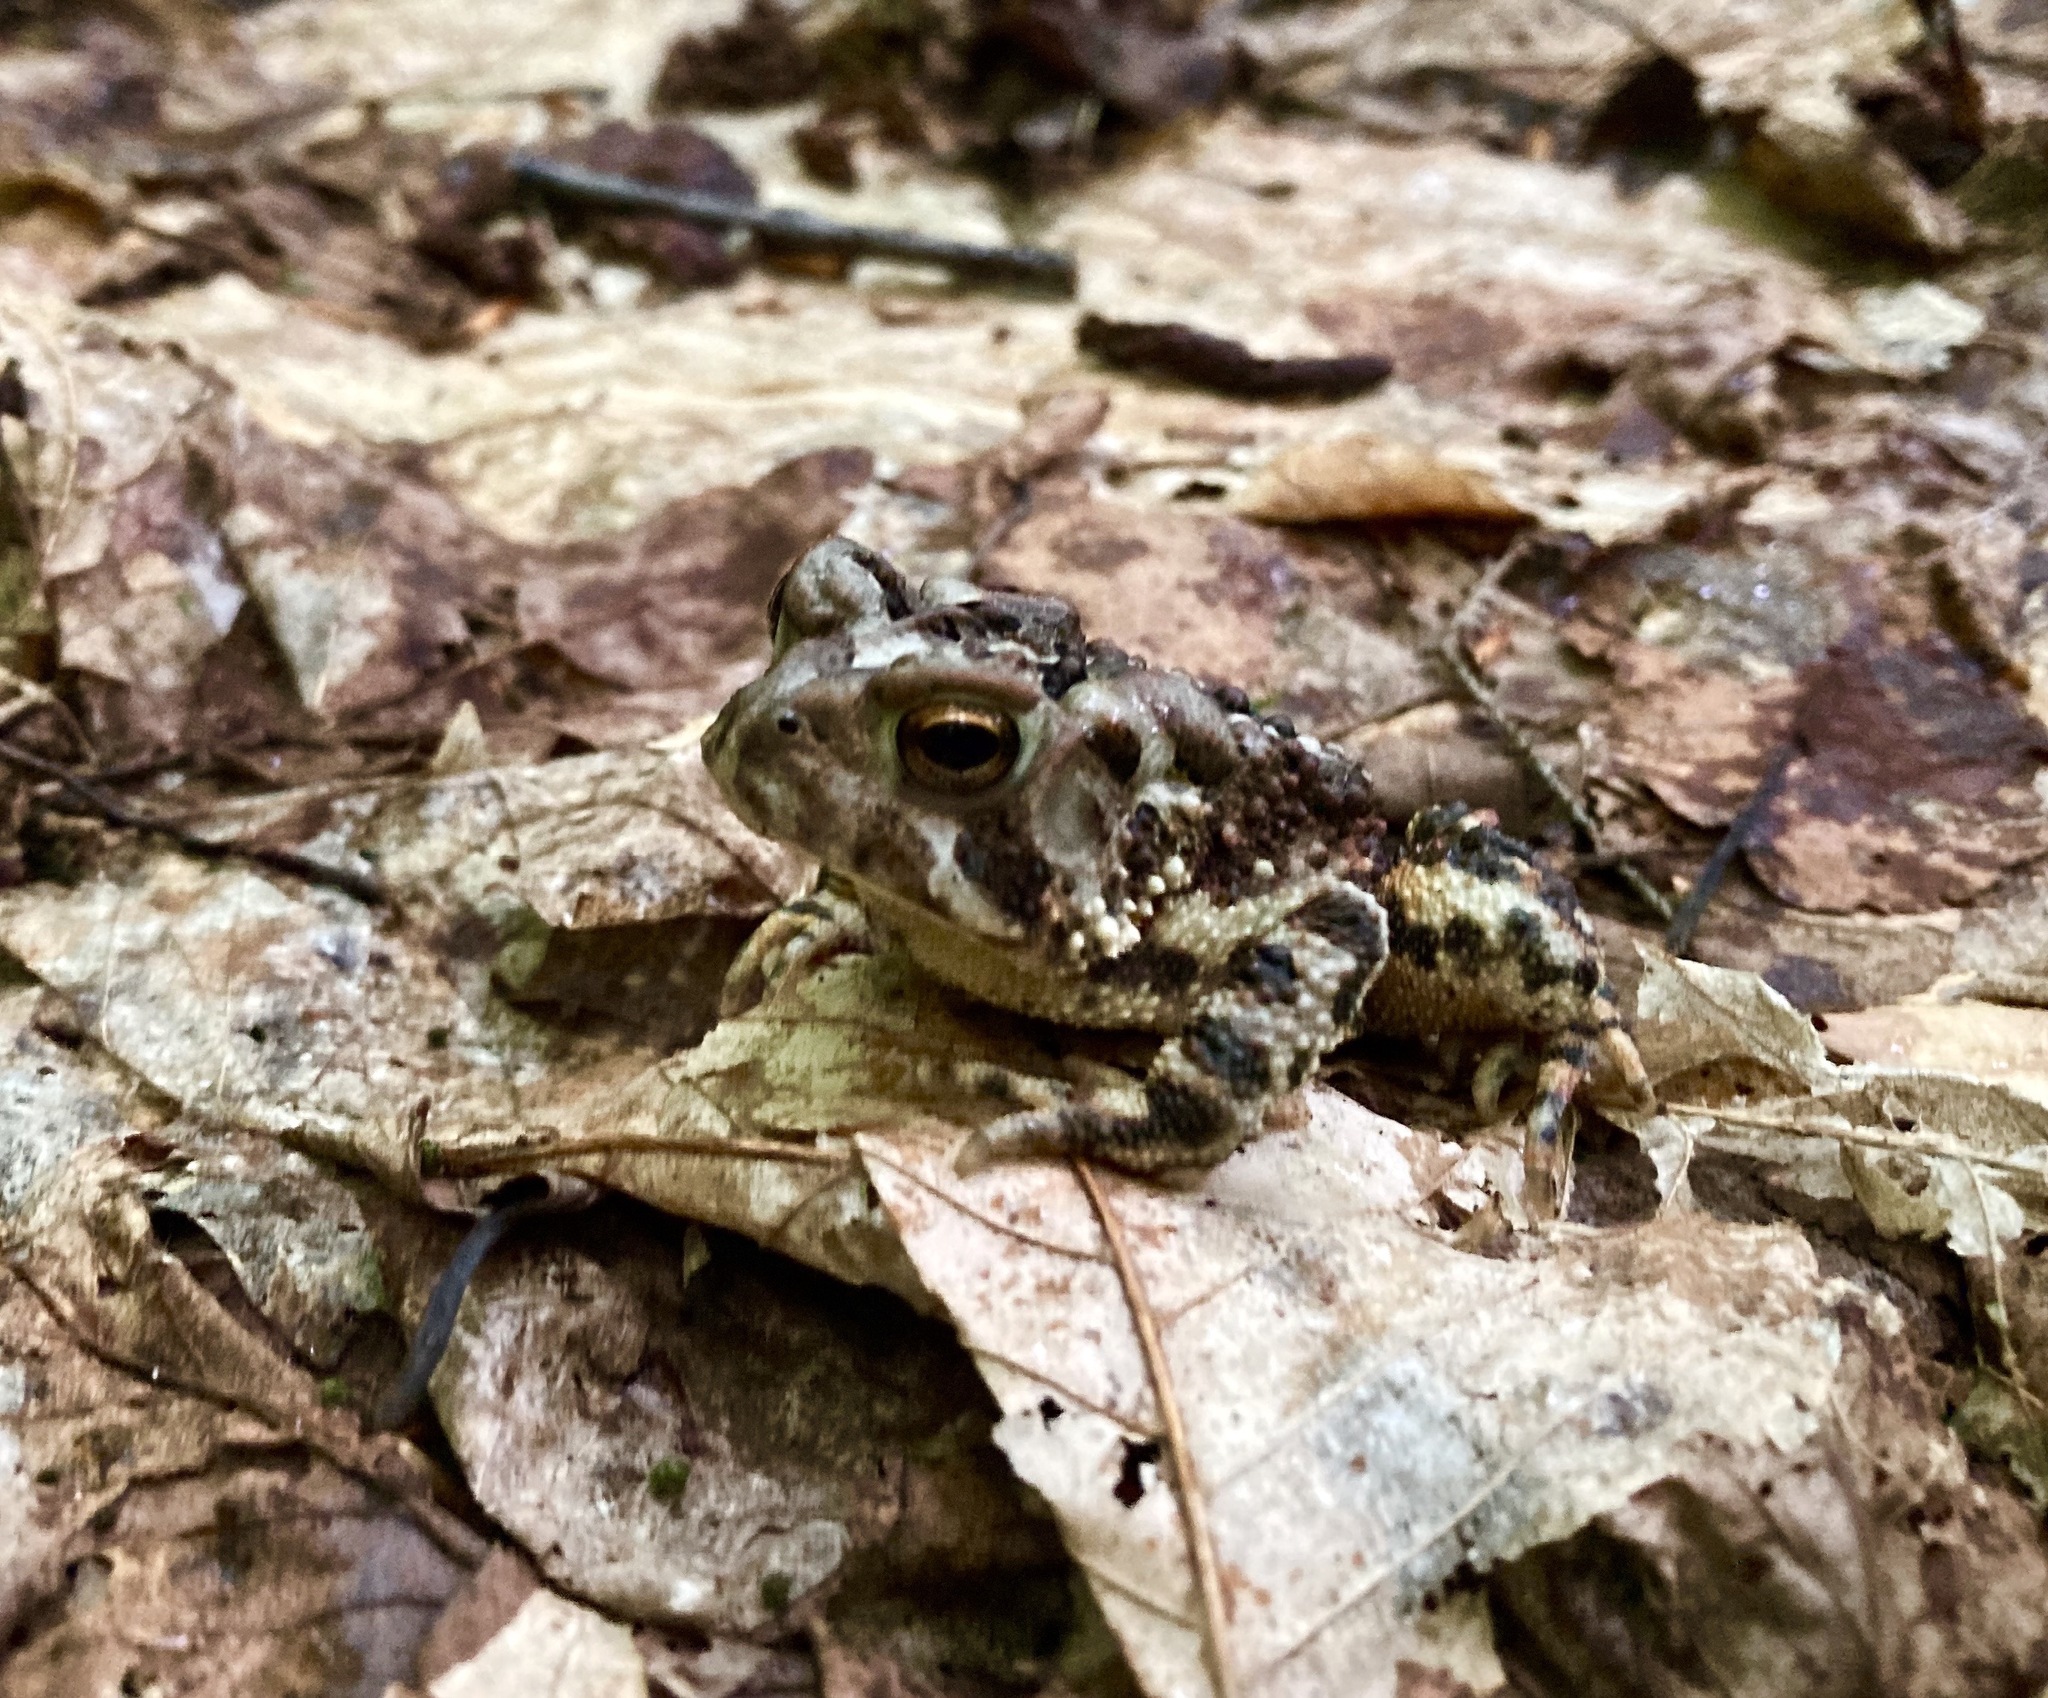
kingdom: Animalia
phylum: Chordata
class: Amphibia
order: Anura
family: Bufonidae
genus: Anaxyrus
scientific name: Anaxyrus americanus
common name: American toad
